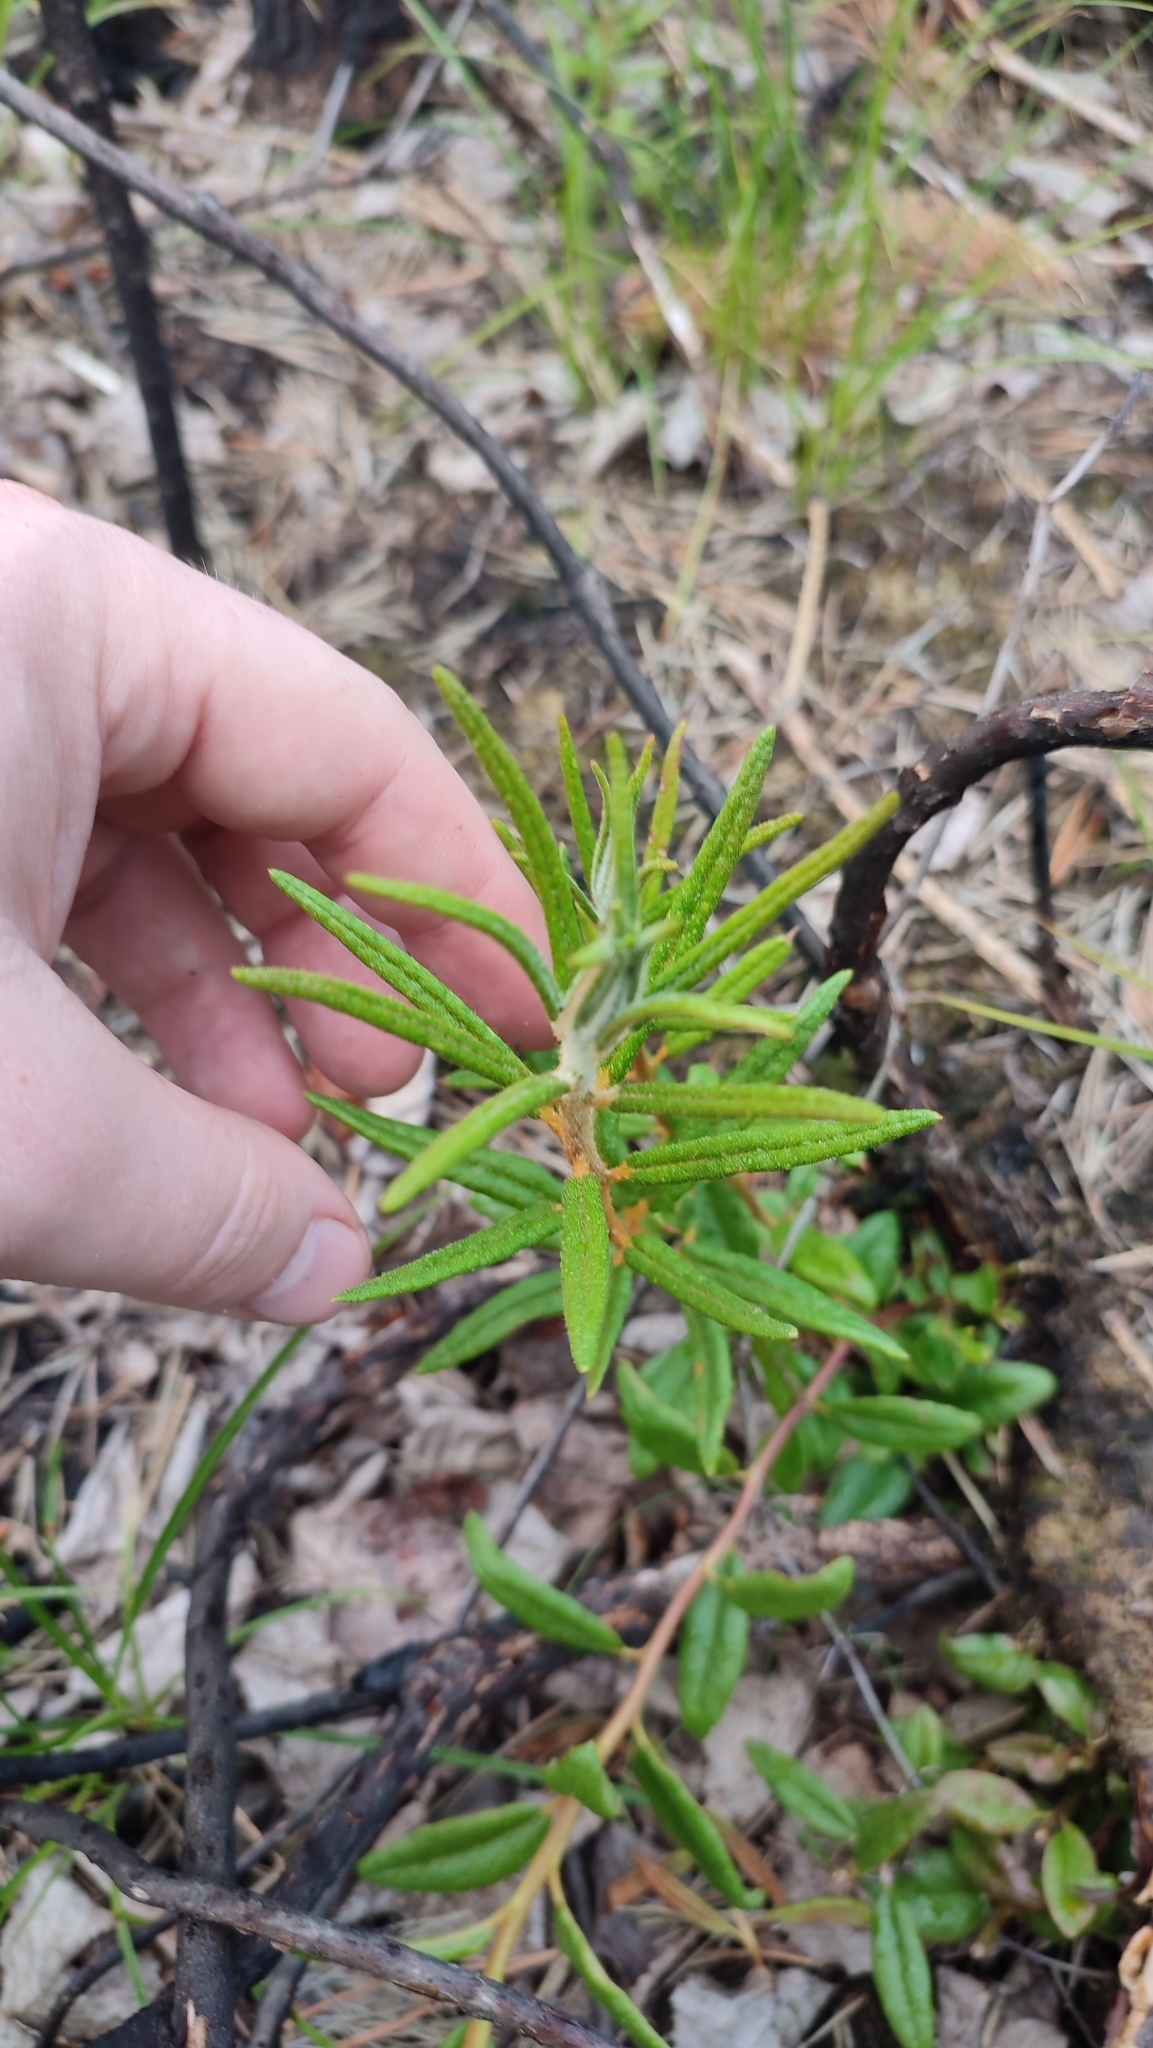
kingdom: Plantae
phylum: Tracheophyta
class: Magnoliopsida
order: Ericales
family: Ericaceae
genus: Rhododendron
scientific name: Rhododendron tomentosum
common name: Marsh labrador tea
